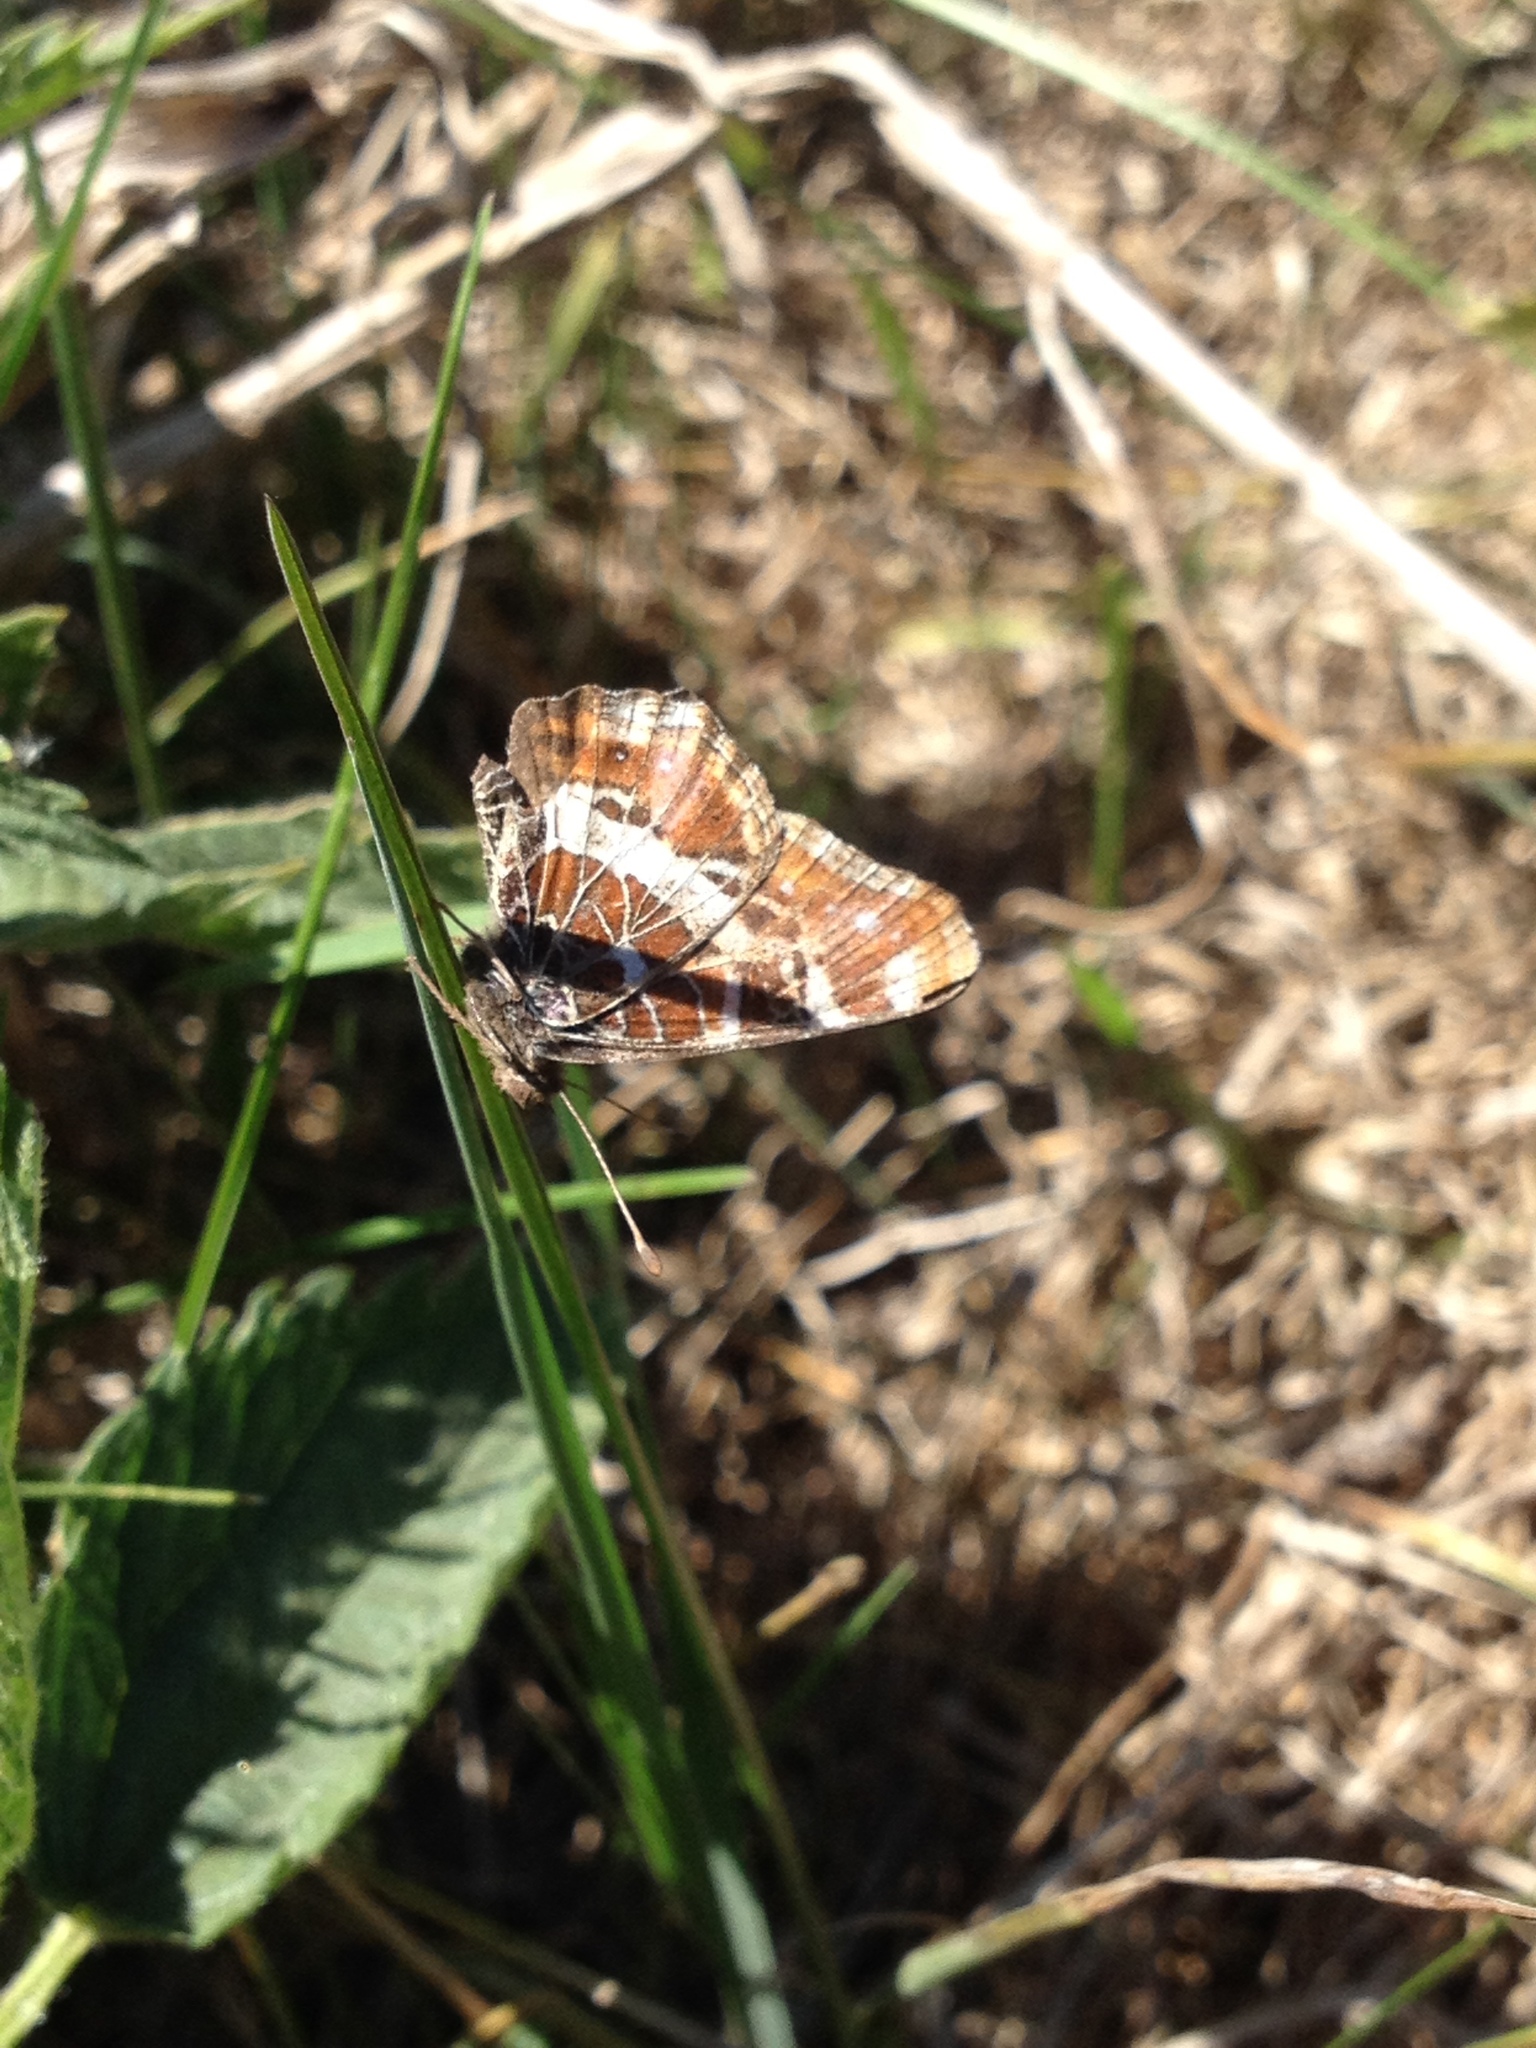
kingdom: Animalia
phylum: Arthropoda
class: Insecta
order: Lepidoptera
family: Nymphalidae
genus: Araschnia
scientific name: Araschnia levana
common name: Map butterfly
